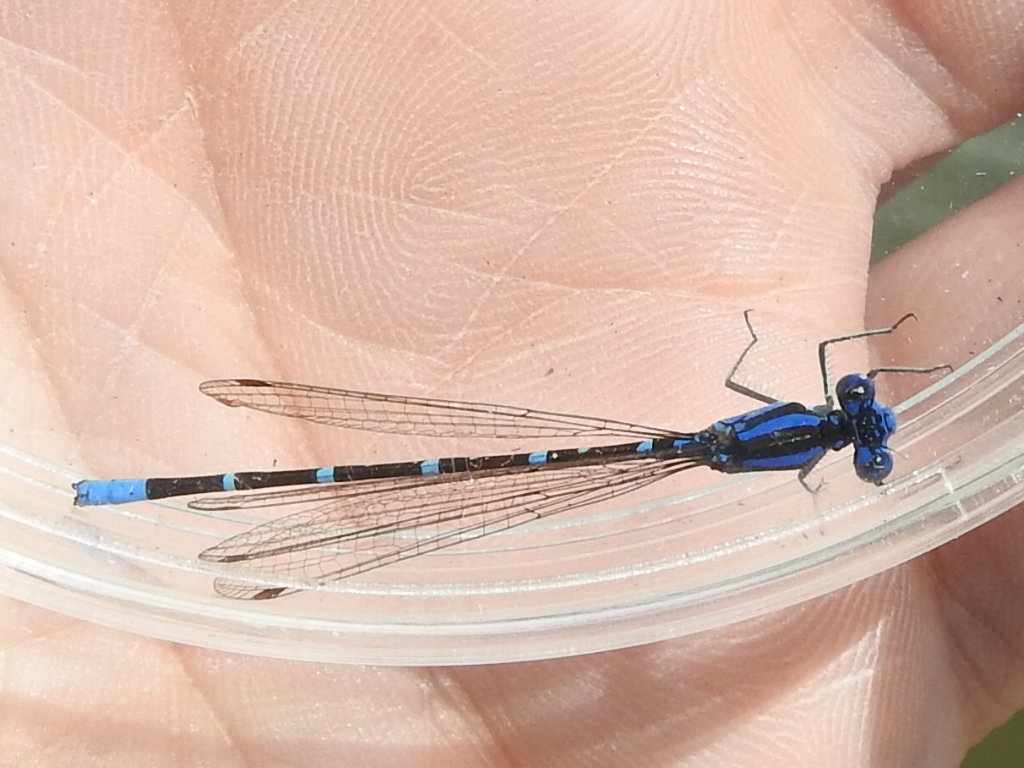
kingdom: Animalia
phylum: Arthropoda
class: Insecta
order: Odonata
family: Coenagrionidae
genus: Argia
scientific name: Argia sedula
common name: Blue-ringed dancer
